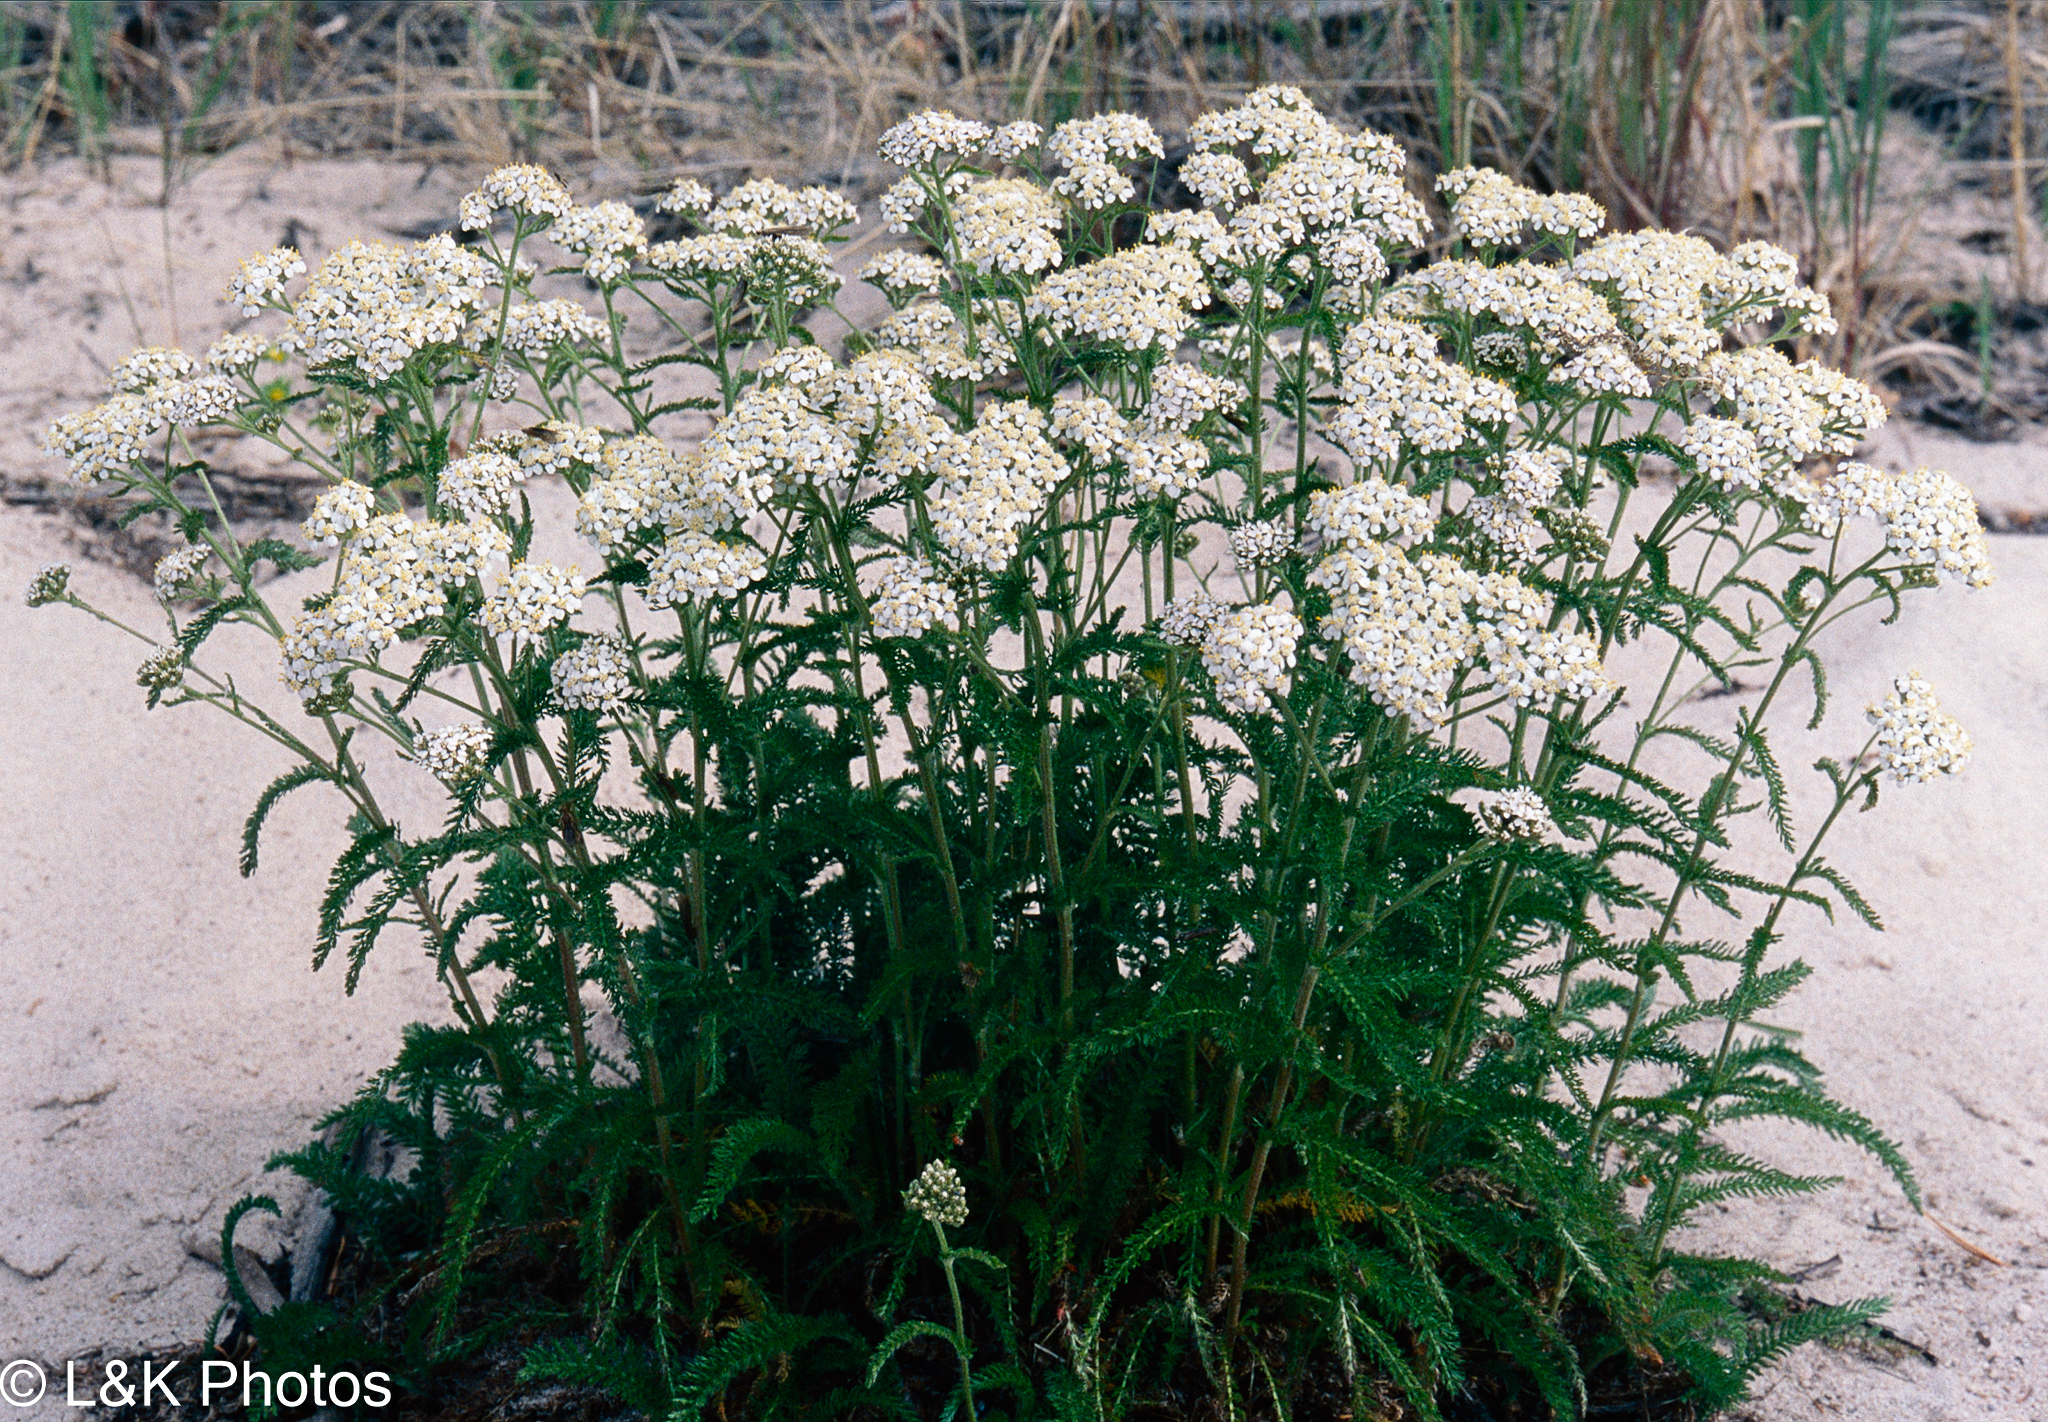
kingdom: Plantae
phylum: Tracheophyta
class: Magnoliopsida
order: Asterales
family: Asteraceae
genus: Achillea
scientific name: Achillea millefolium
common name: Yarrow
